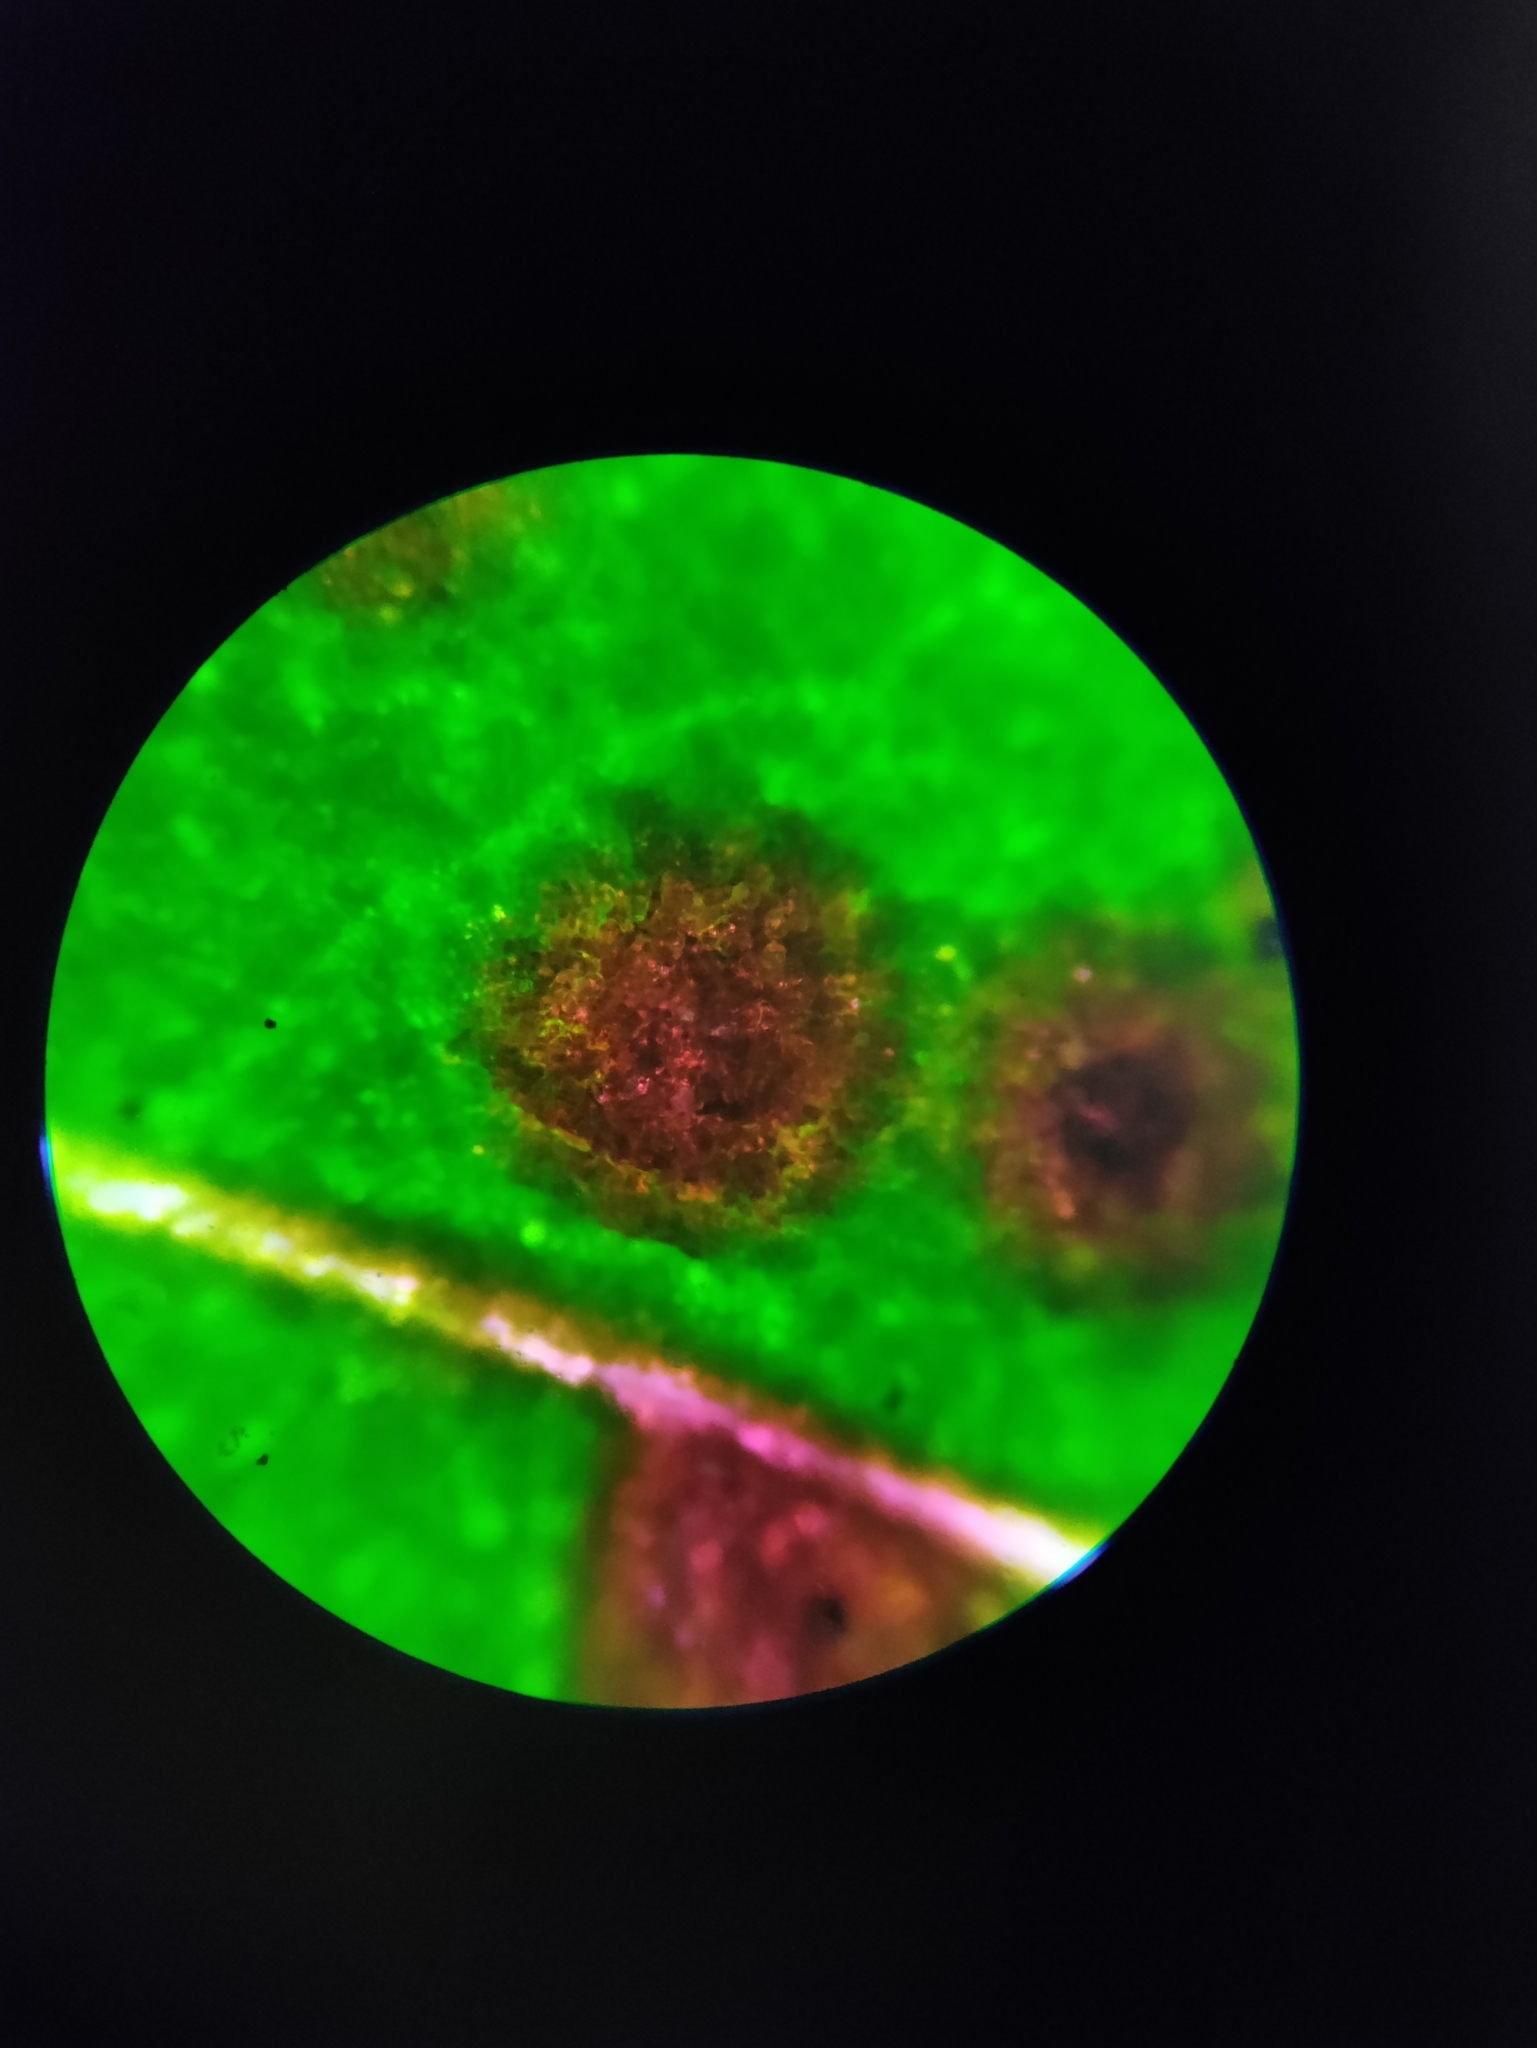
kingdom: Plantae
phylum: Tracheophyta
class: Magnoliopsida
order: Caryophyllales
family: Amaranthaceae
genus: Chenopodium
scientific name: Chenopodium album
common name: Fat-hen
